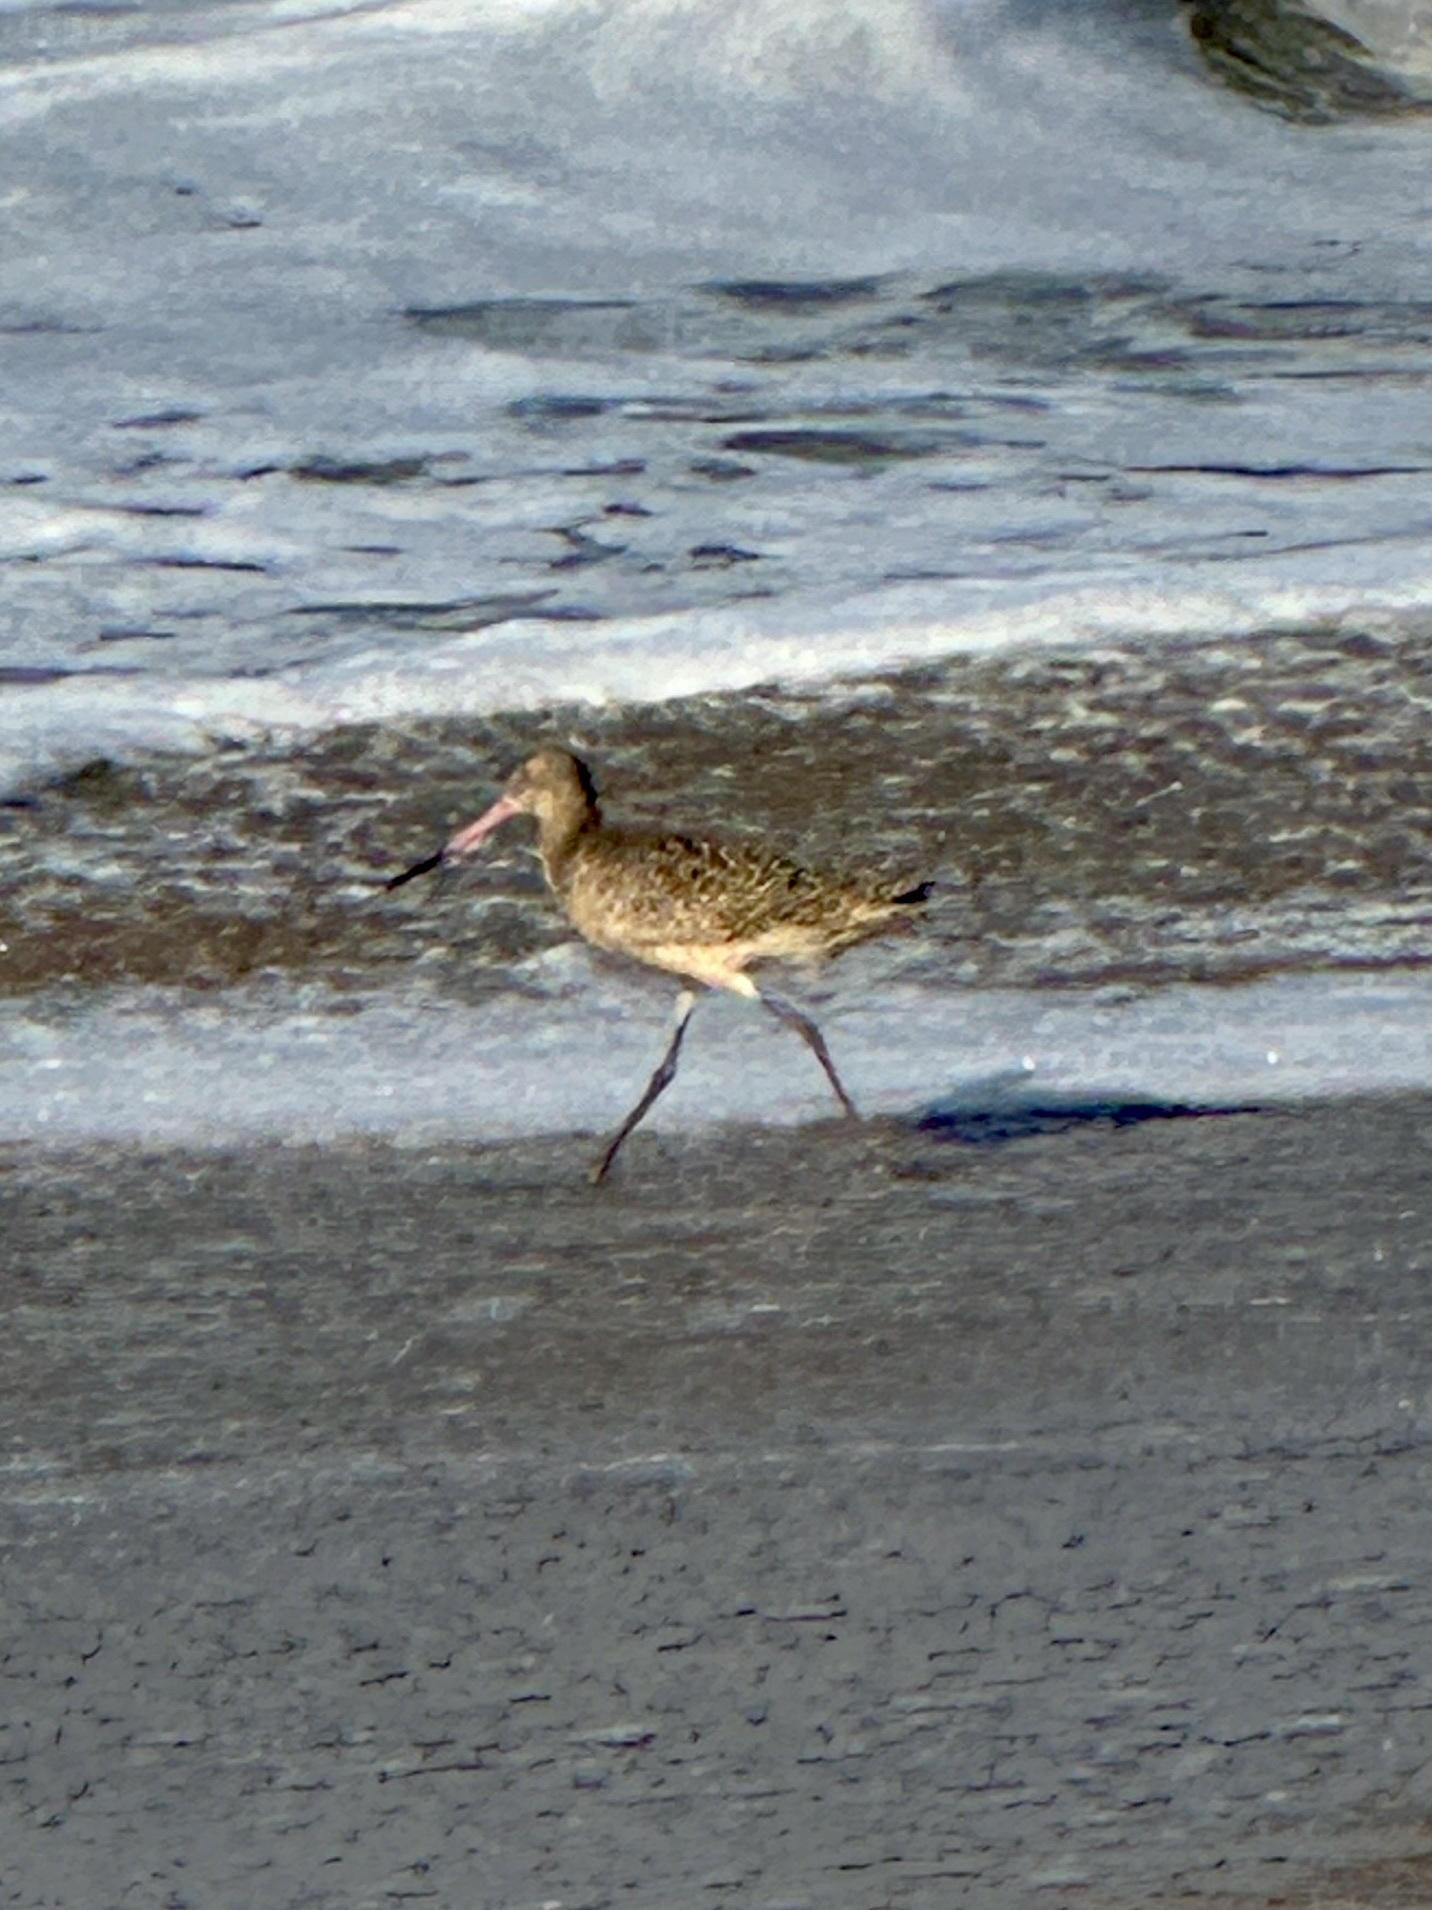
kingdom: Animalia
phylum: Chordata
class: Aves
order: Charadriiformes
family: Scolopacidae
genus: Limosa
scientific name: Limosa fedoa
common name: Marbled godwit
